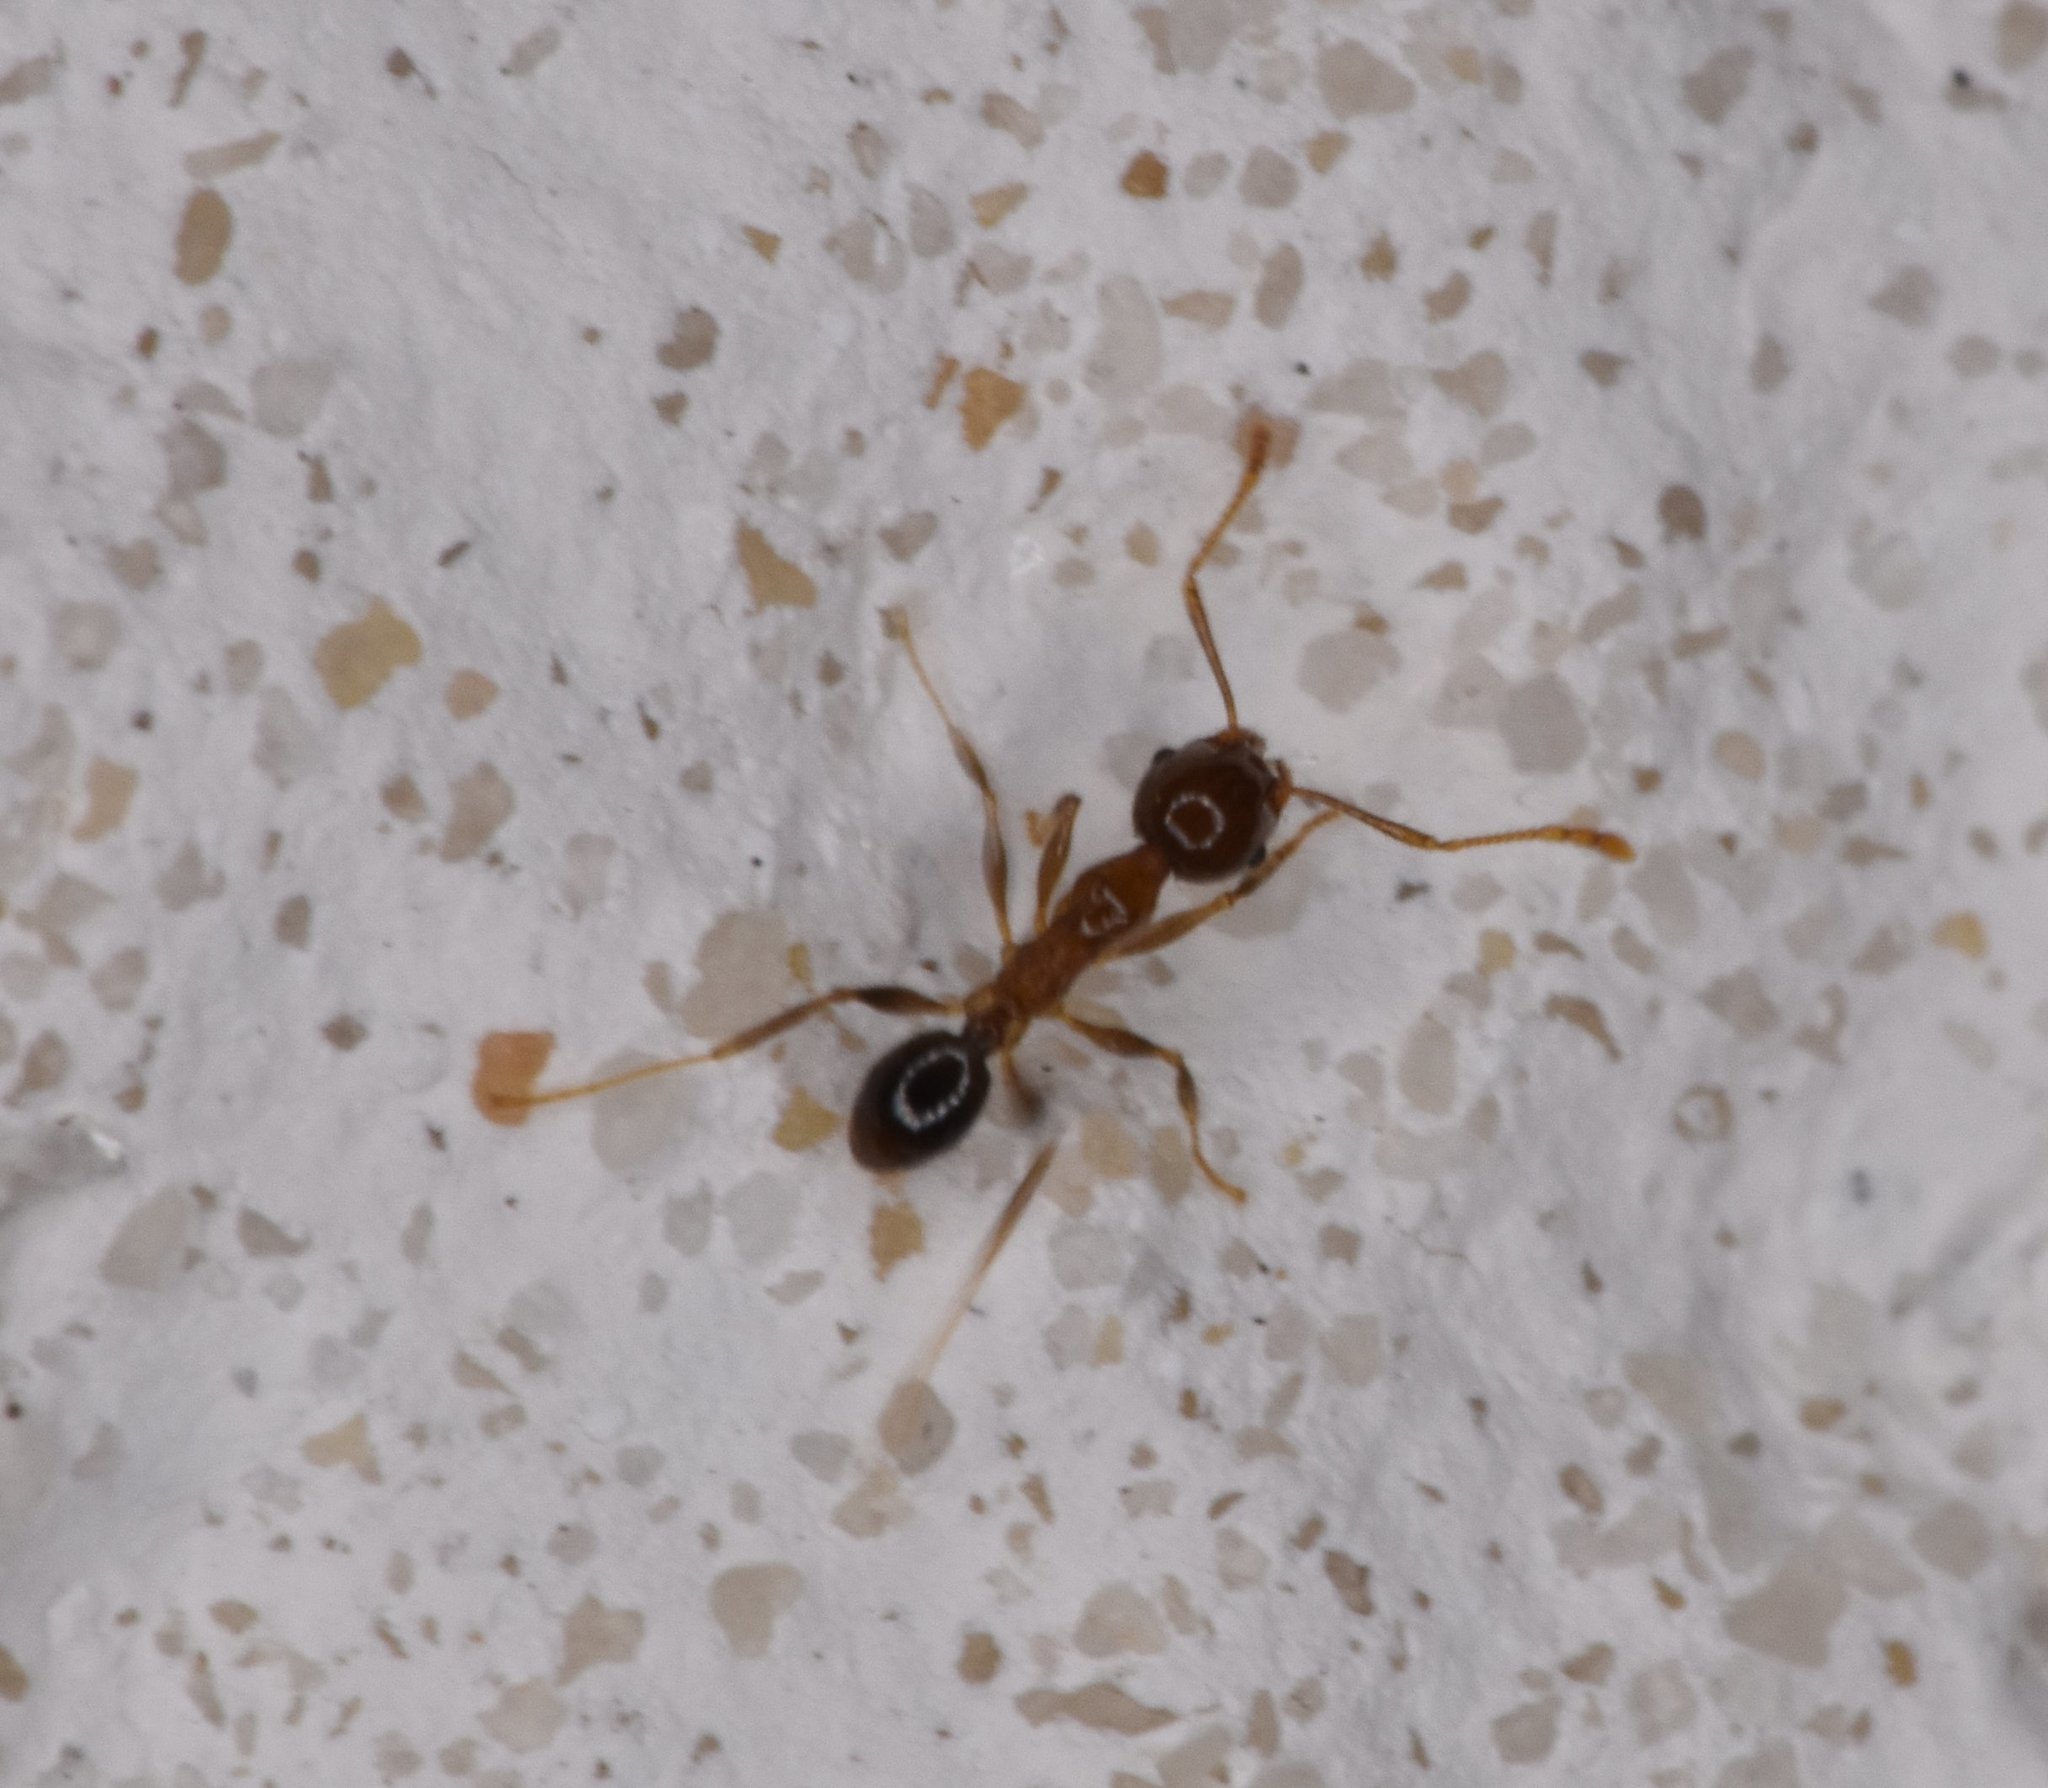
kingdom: Animalia
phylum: Arthropoda
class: Insecta
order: Hymenoptera
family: Formicidae
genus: Pheidole
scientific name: Pheidole megacephala
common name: Bigheaded ant
